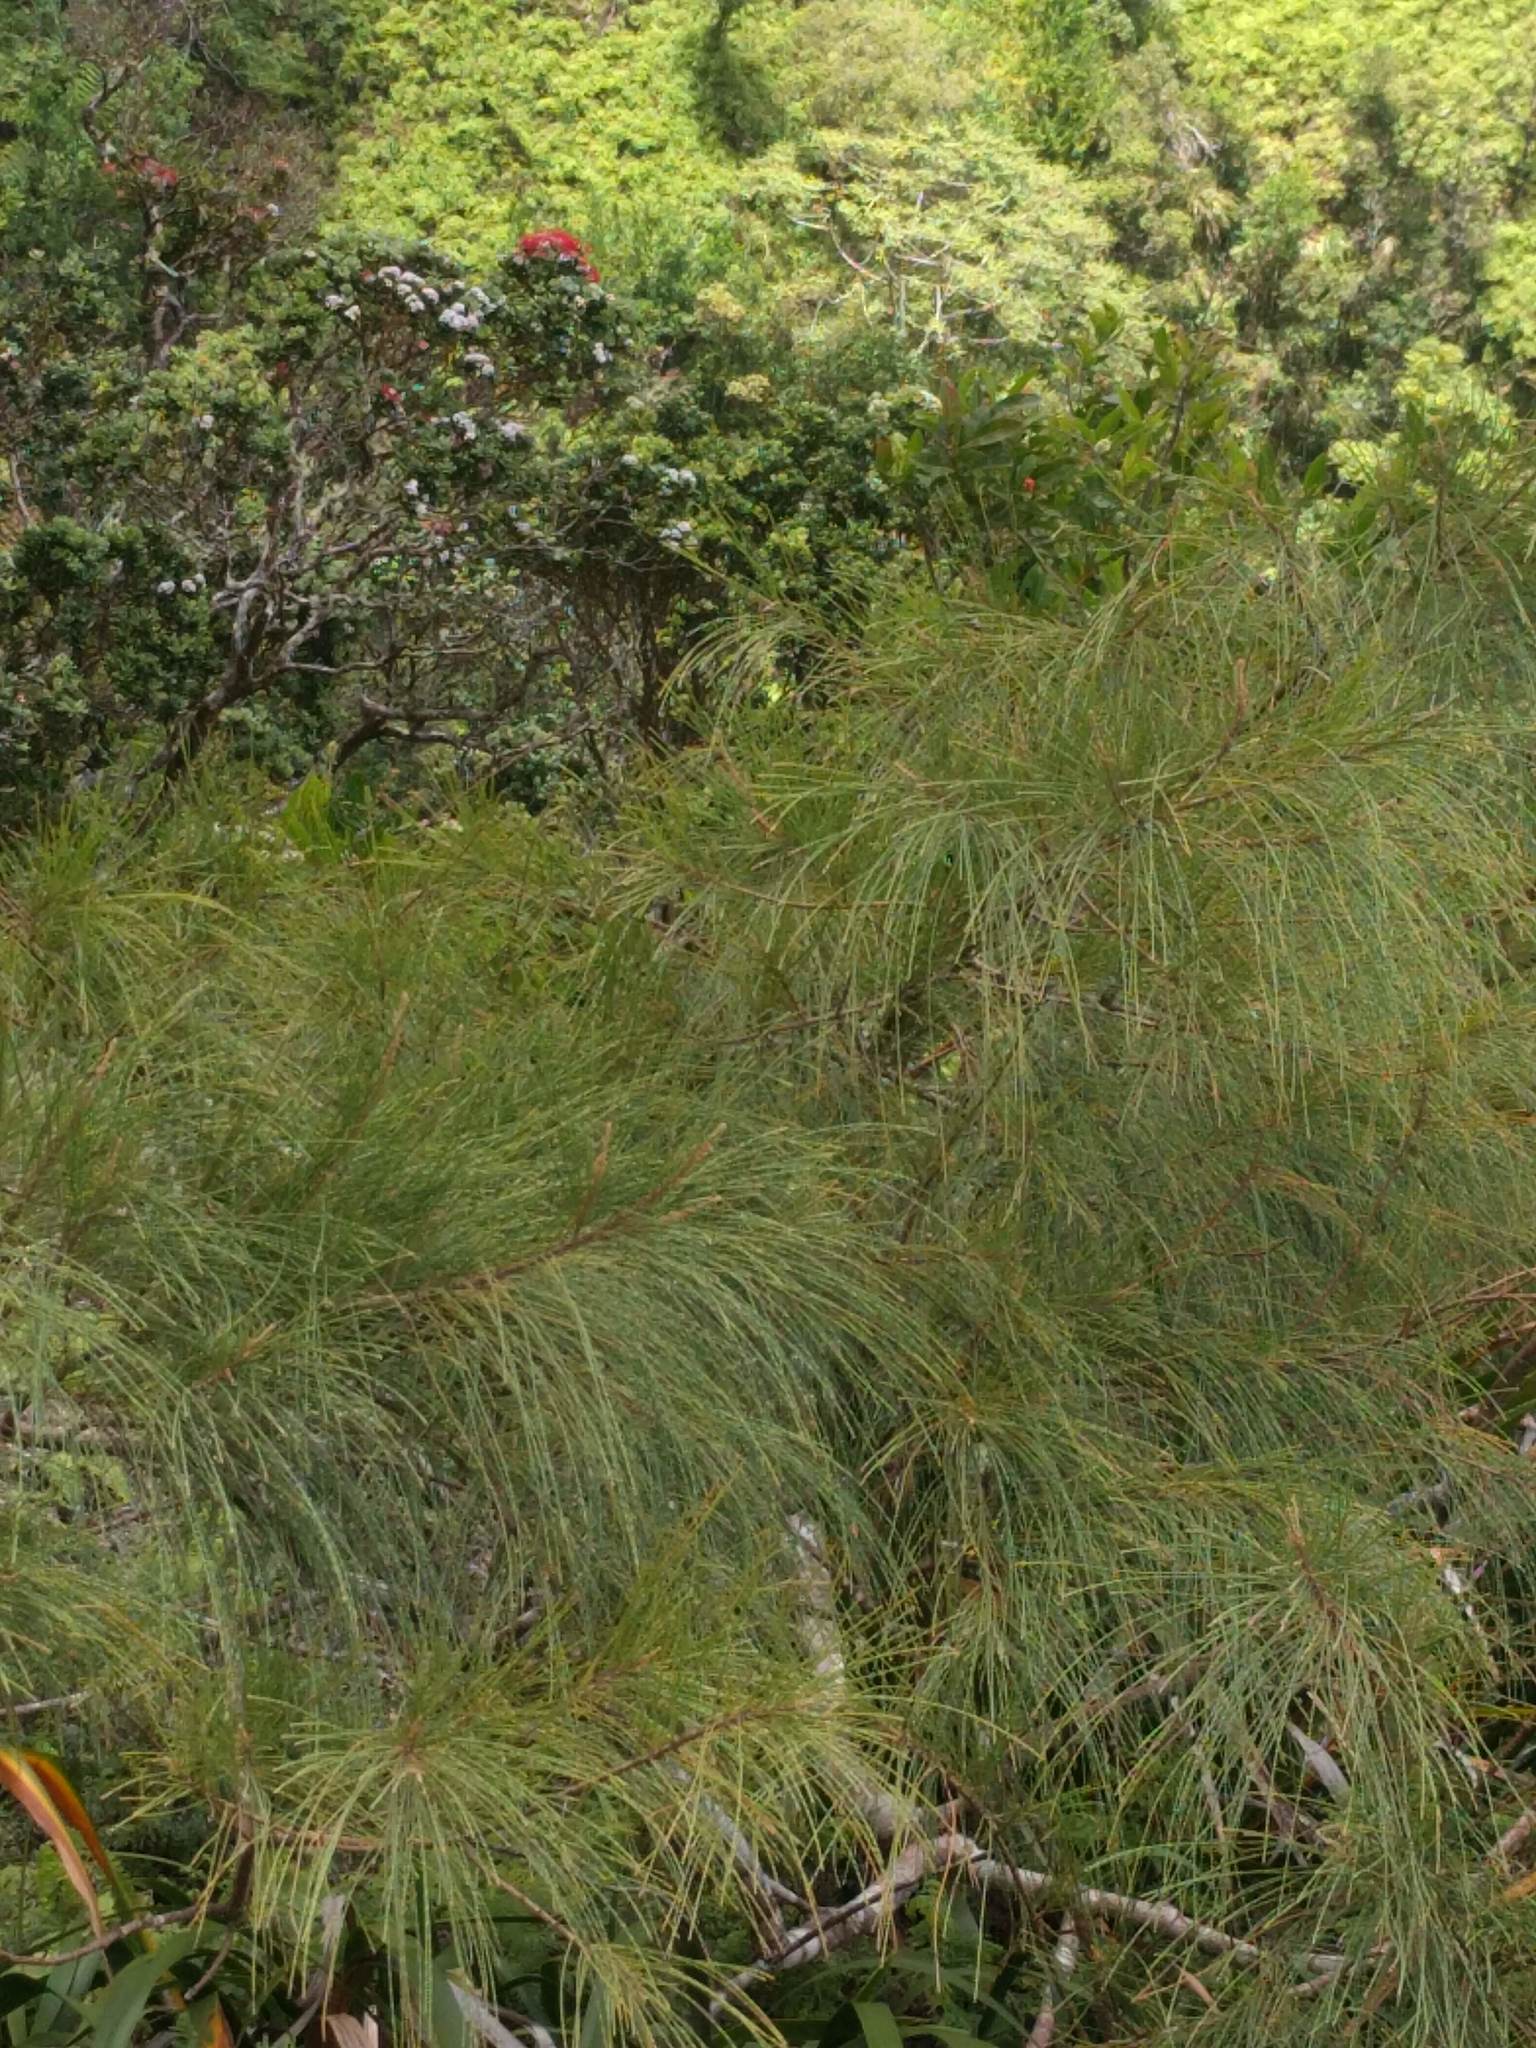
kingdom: Plantae
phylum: Tracheophyta
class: Magnoliopsida
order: Fagales
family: Casuarinaceae
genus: Casuarina
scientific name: Casuarina equisetifolia
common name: Beach sheoak
